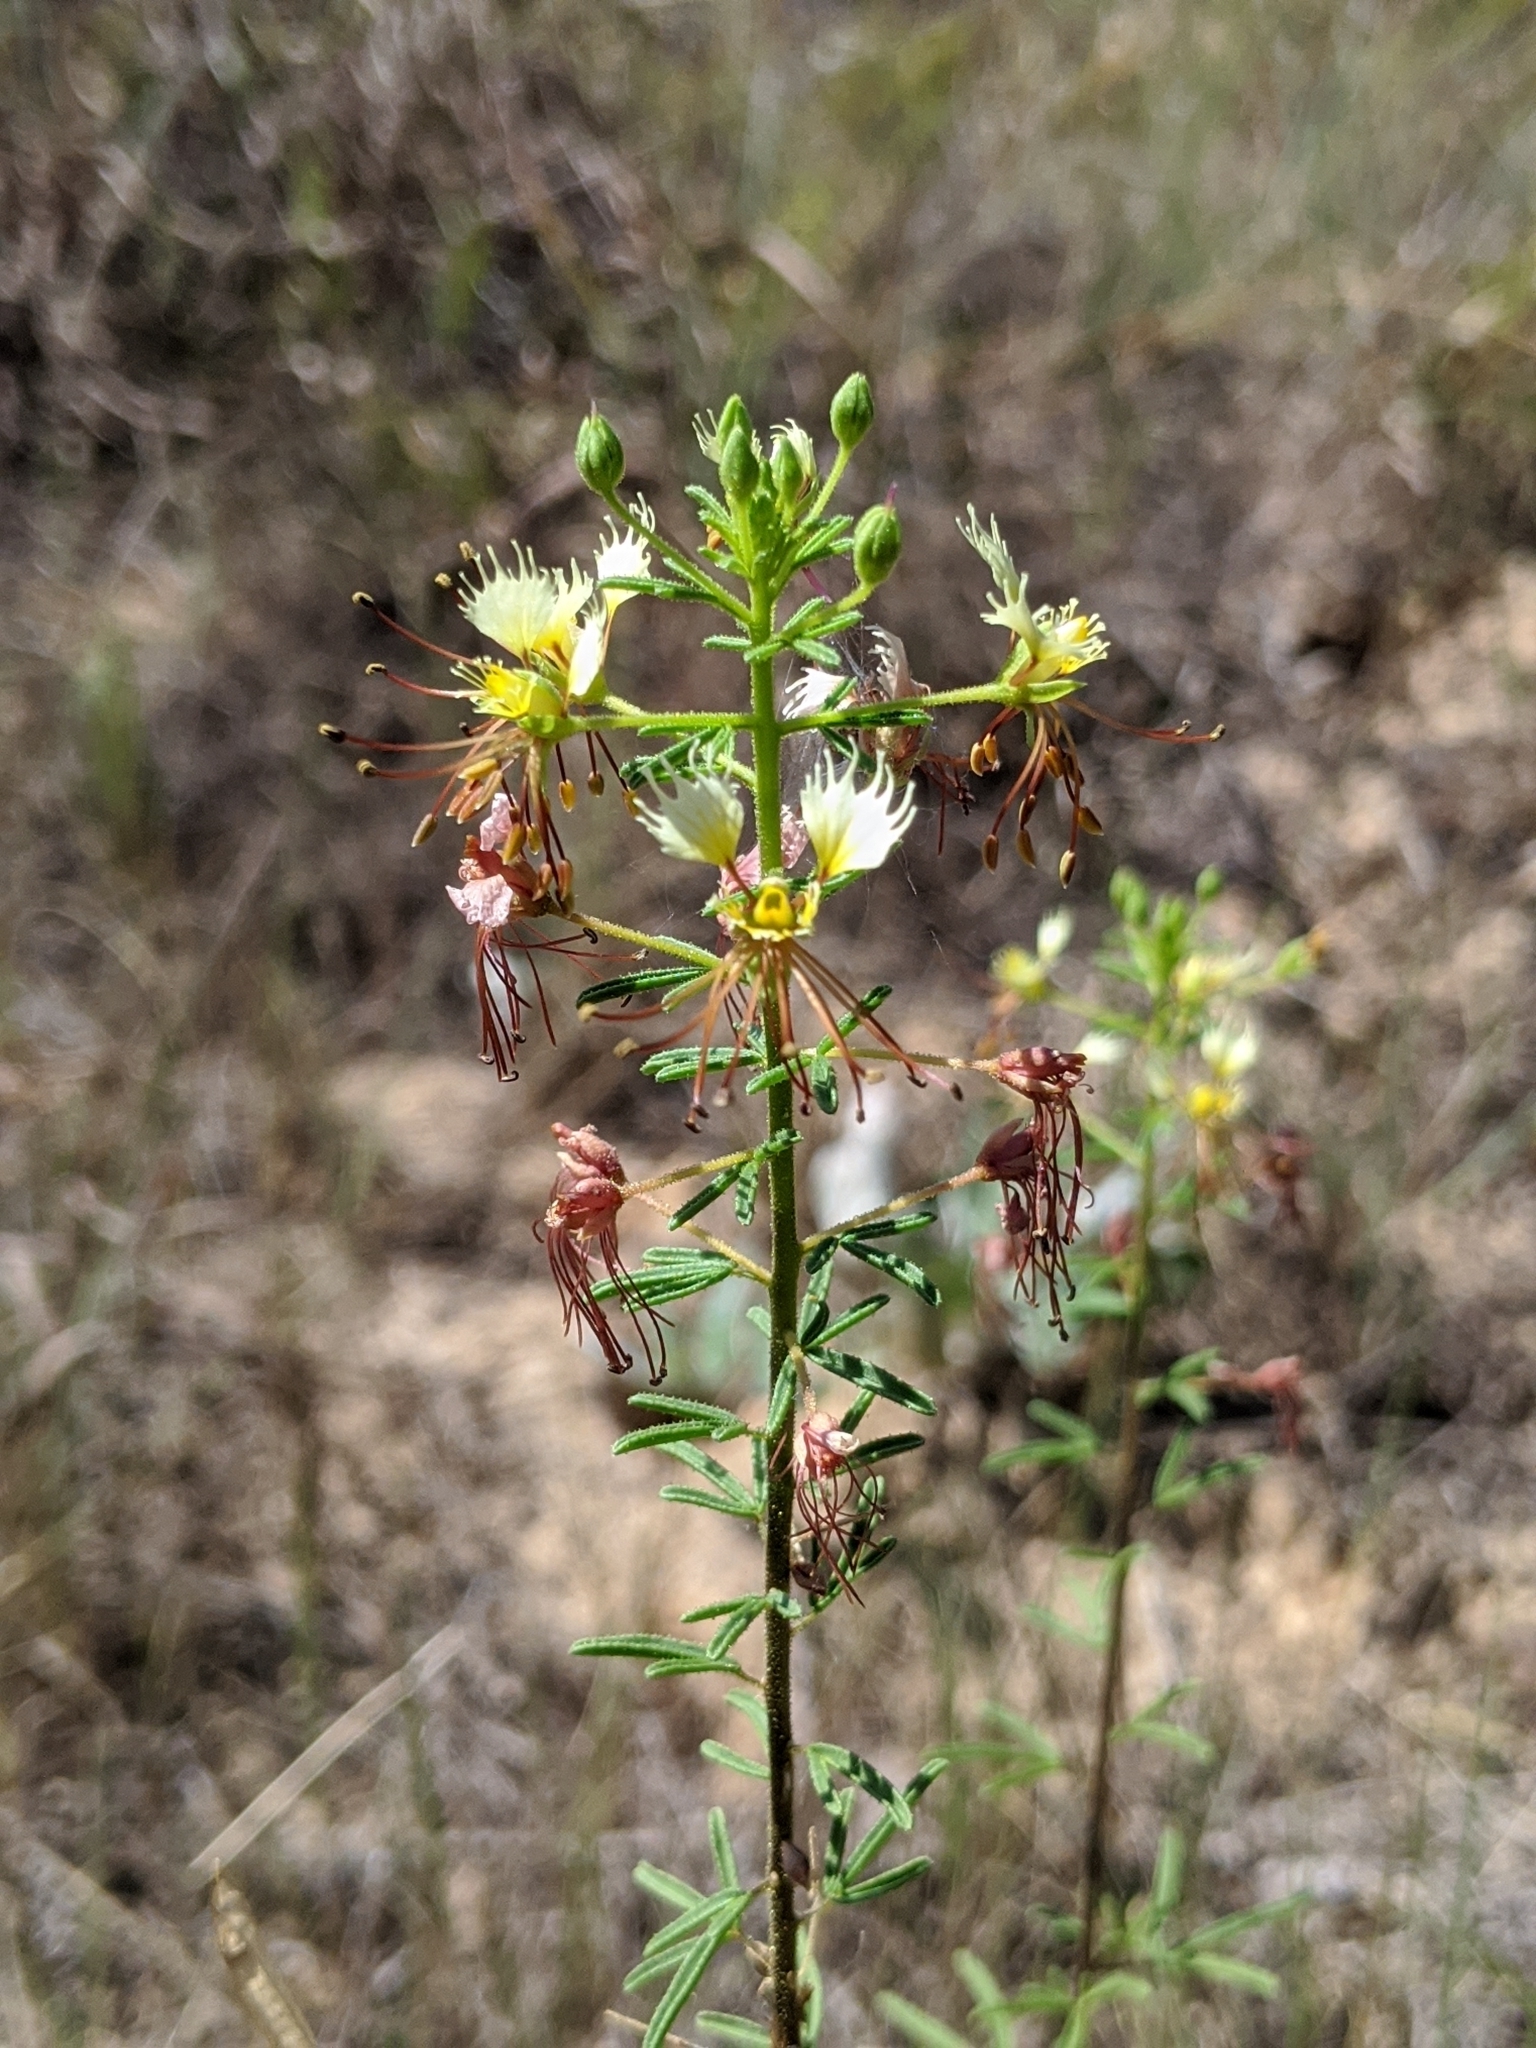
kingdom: Plantae
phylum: Tracheophyta
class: Magnoliopsida
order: Brassicales
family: Cleomaceae
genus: Polanisia
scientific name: Polanisia erosa
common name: Large clammyweed
